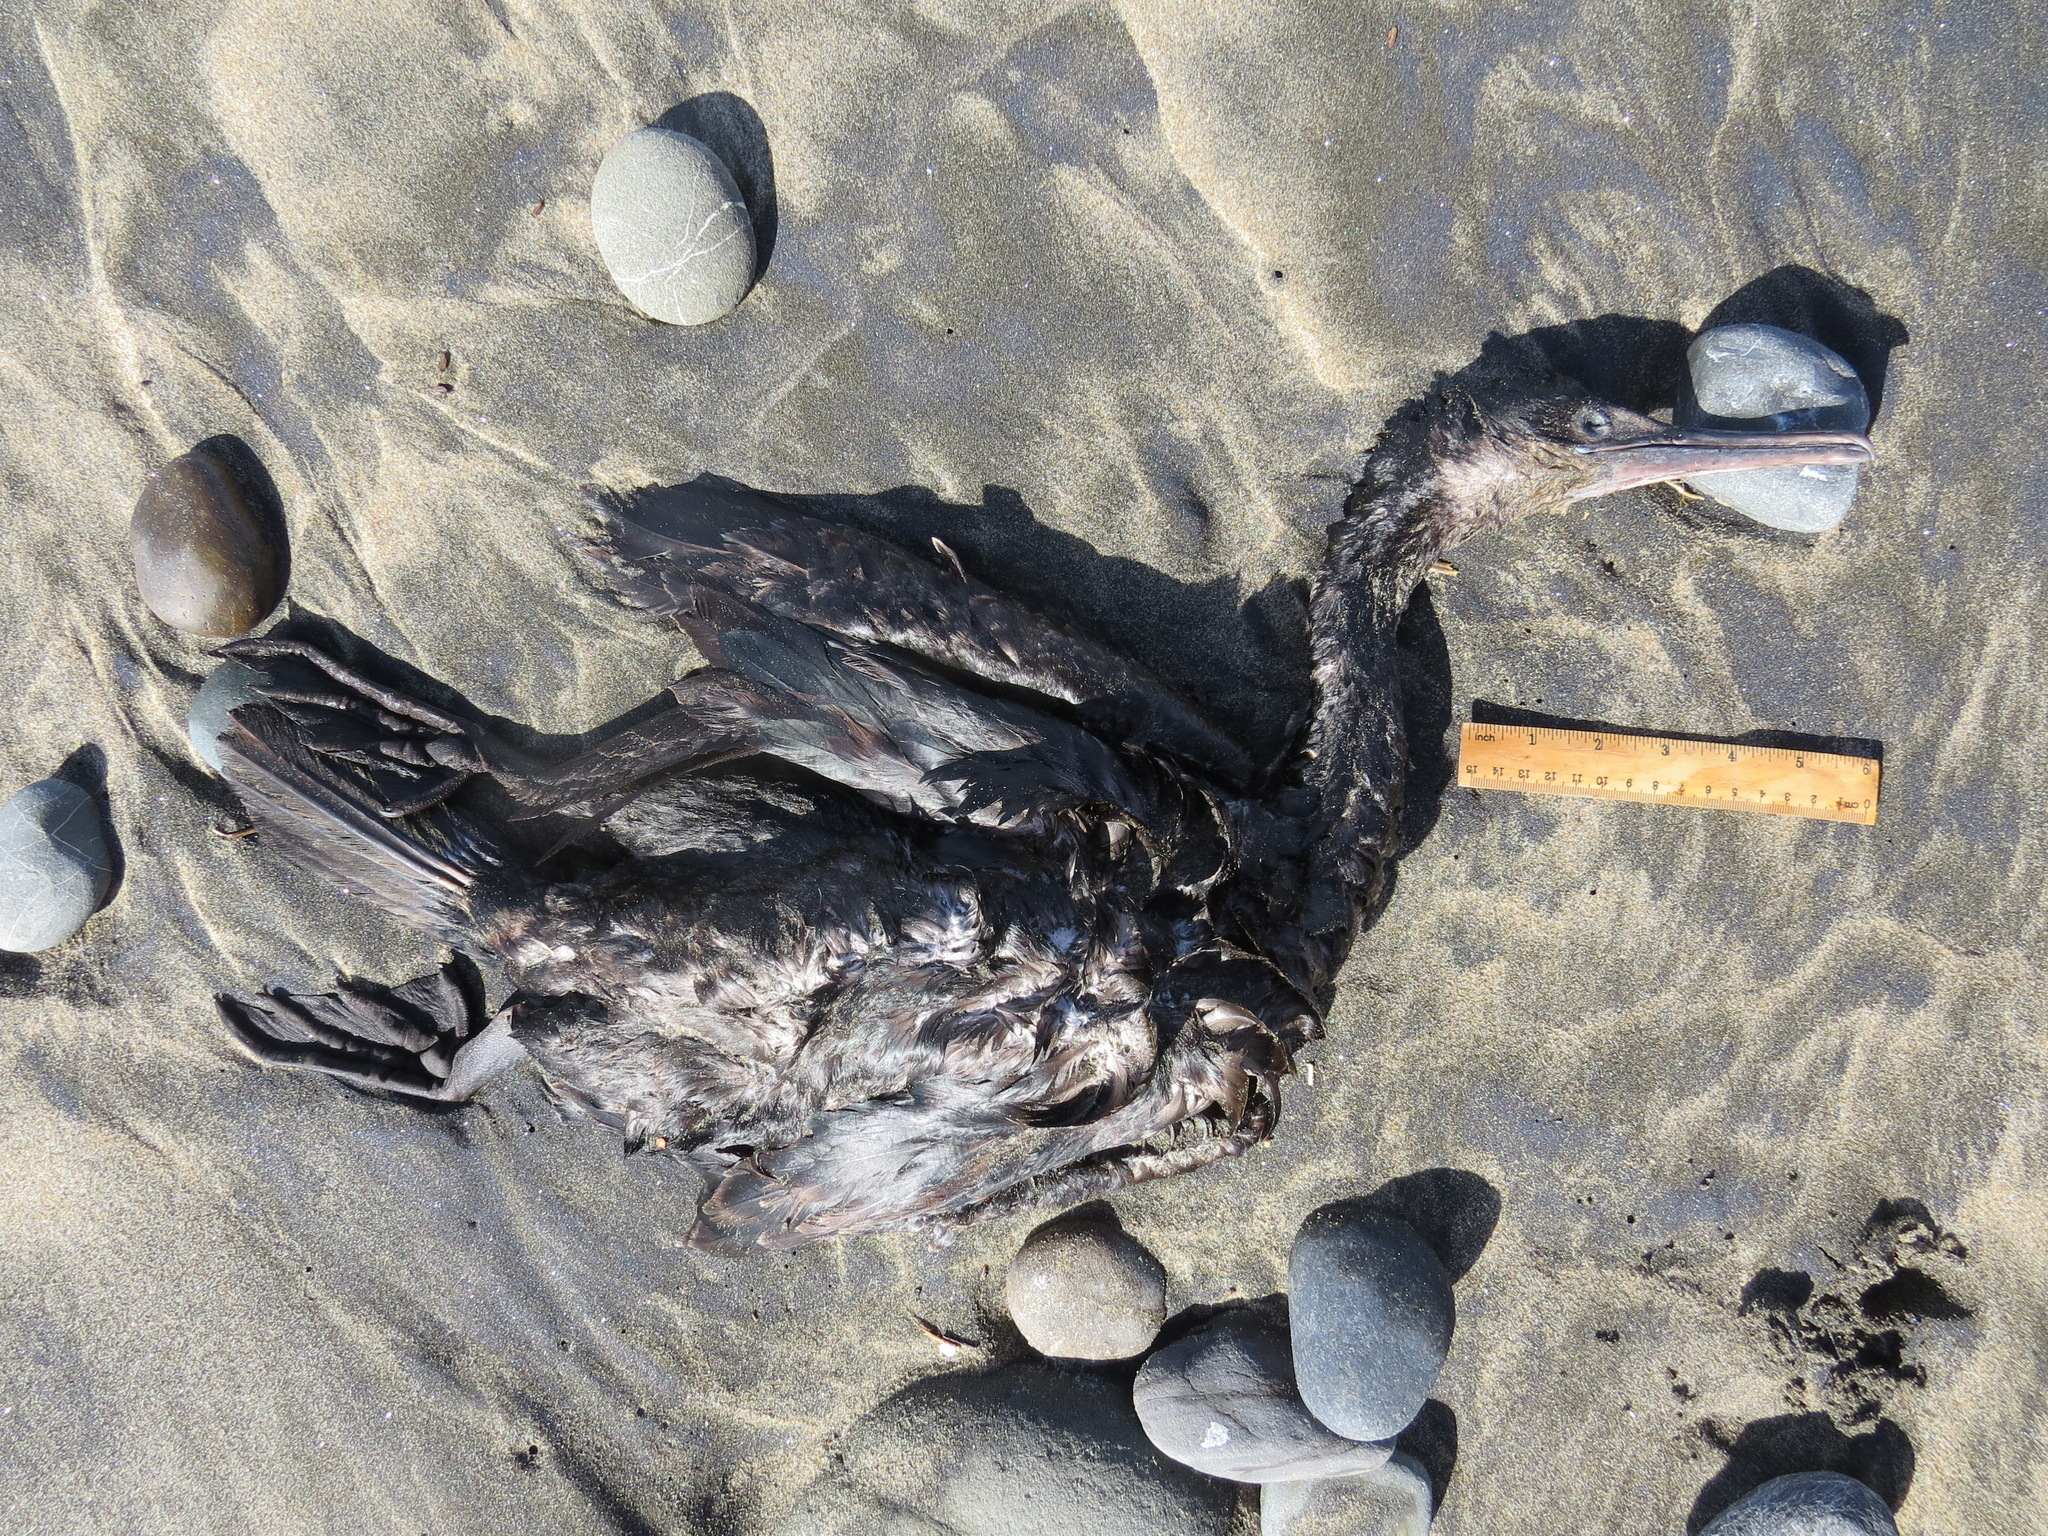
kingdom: Animalia
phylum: Chordata
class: Aves
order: Suliformes
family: Phalacrocoracidae
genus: Urile
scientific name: Urile penicillatus
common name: Brandt's cormorant
